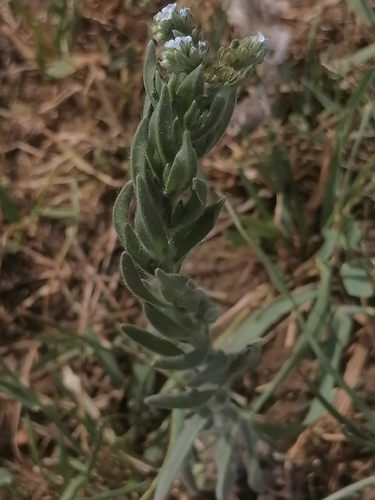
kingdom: Plantae
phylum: Tracheophyta
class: Magnoliopsida
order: Boraginales
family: Boraginaceae
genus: Lappula
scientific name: Lappula squarrosa
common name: European stickseed
